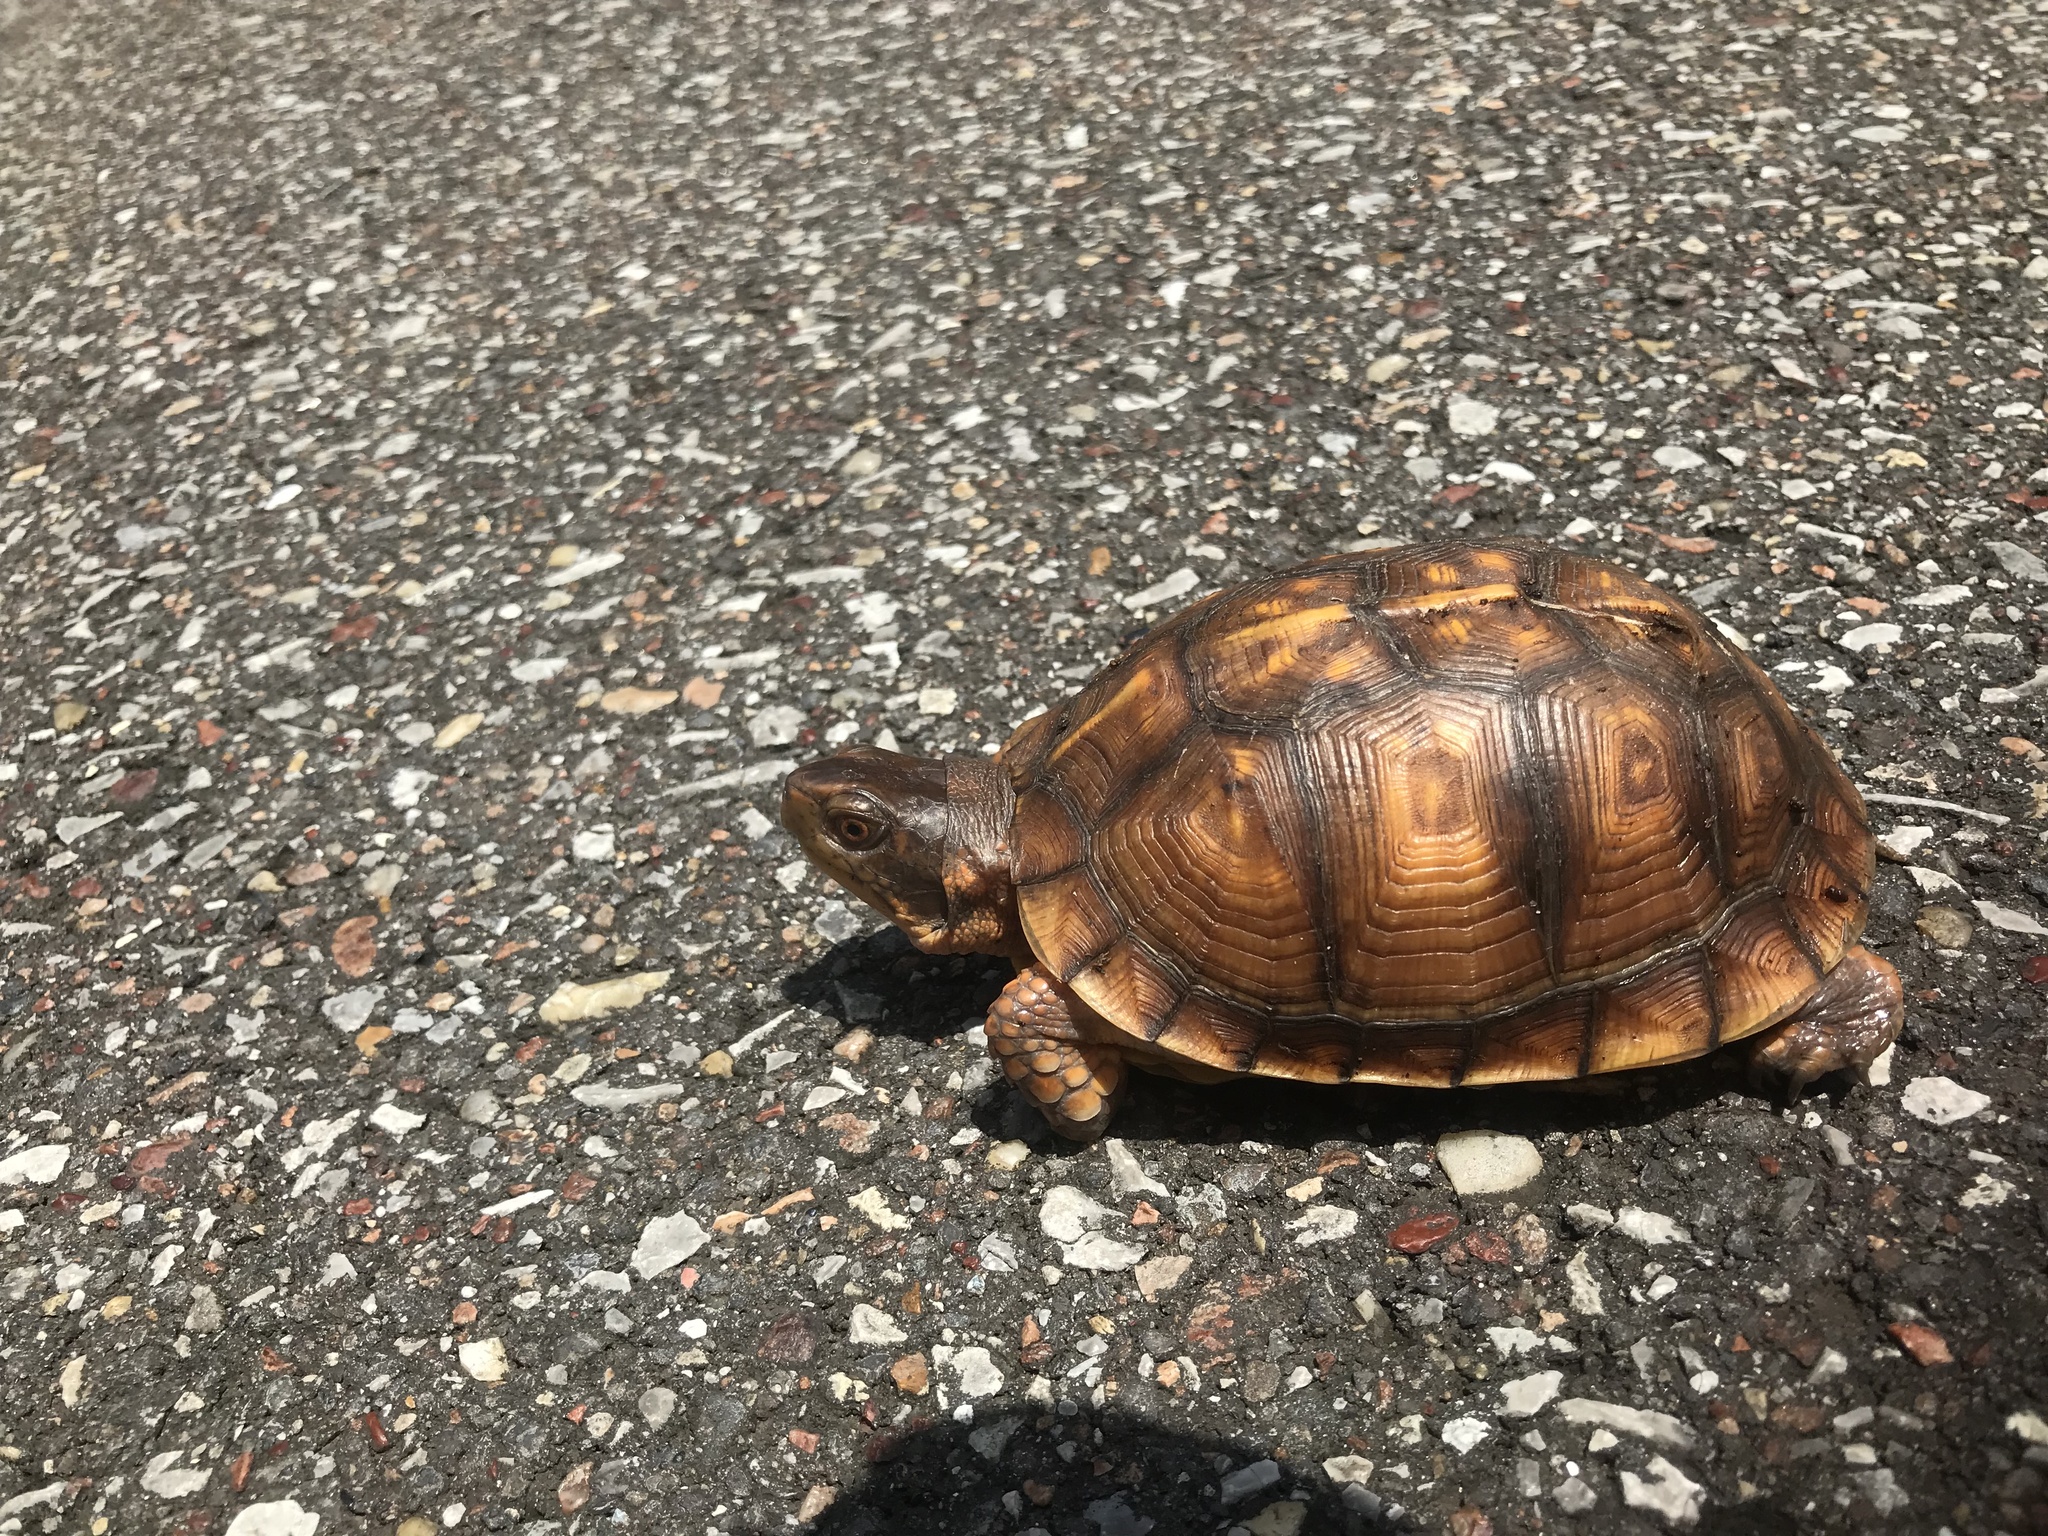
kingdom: Animalia
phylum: Chordata
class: Testudines
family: Emydidae
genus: Terrapene
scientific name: Terrapene carolina
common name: Common box turtle
